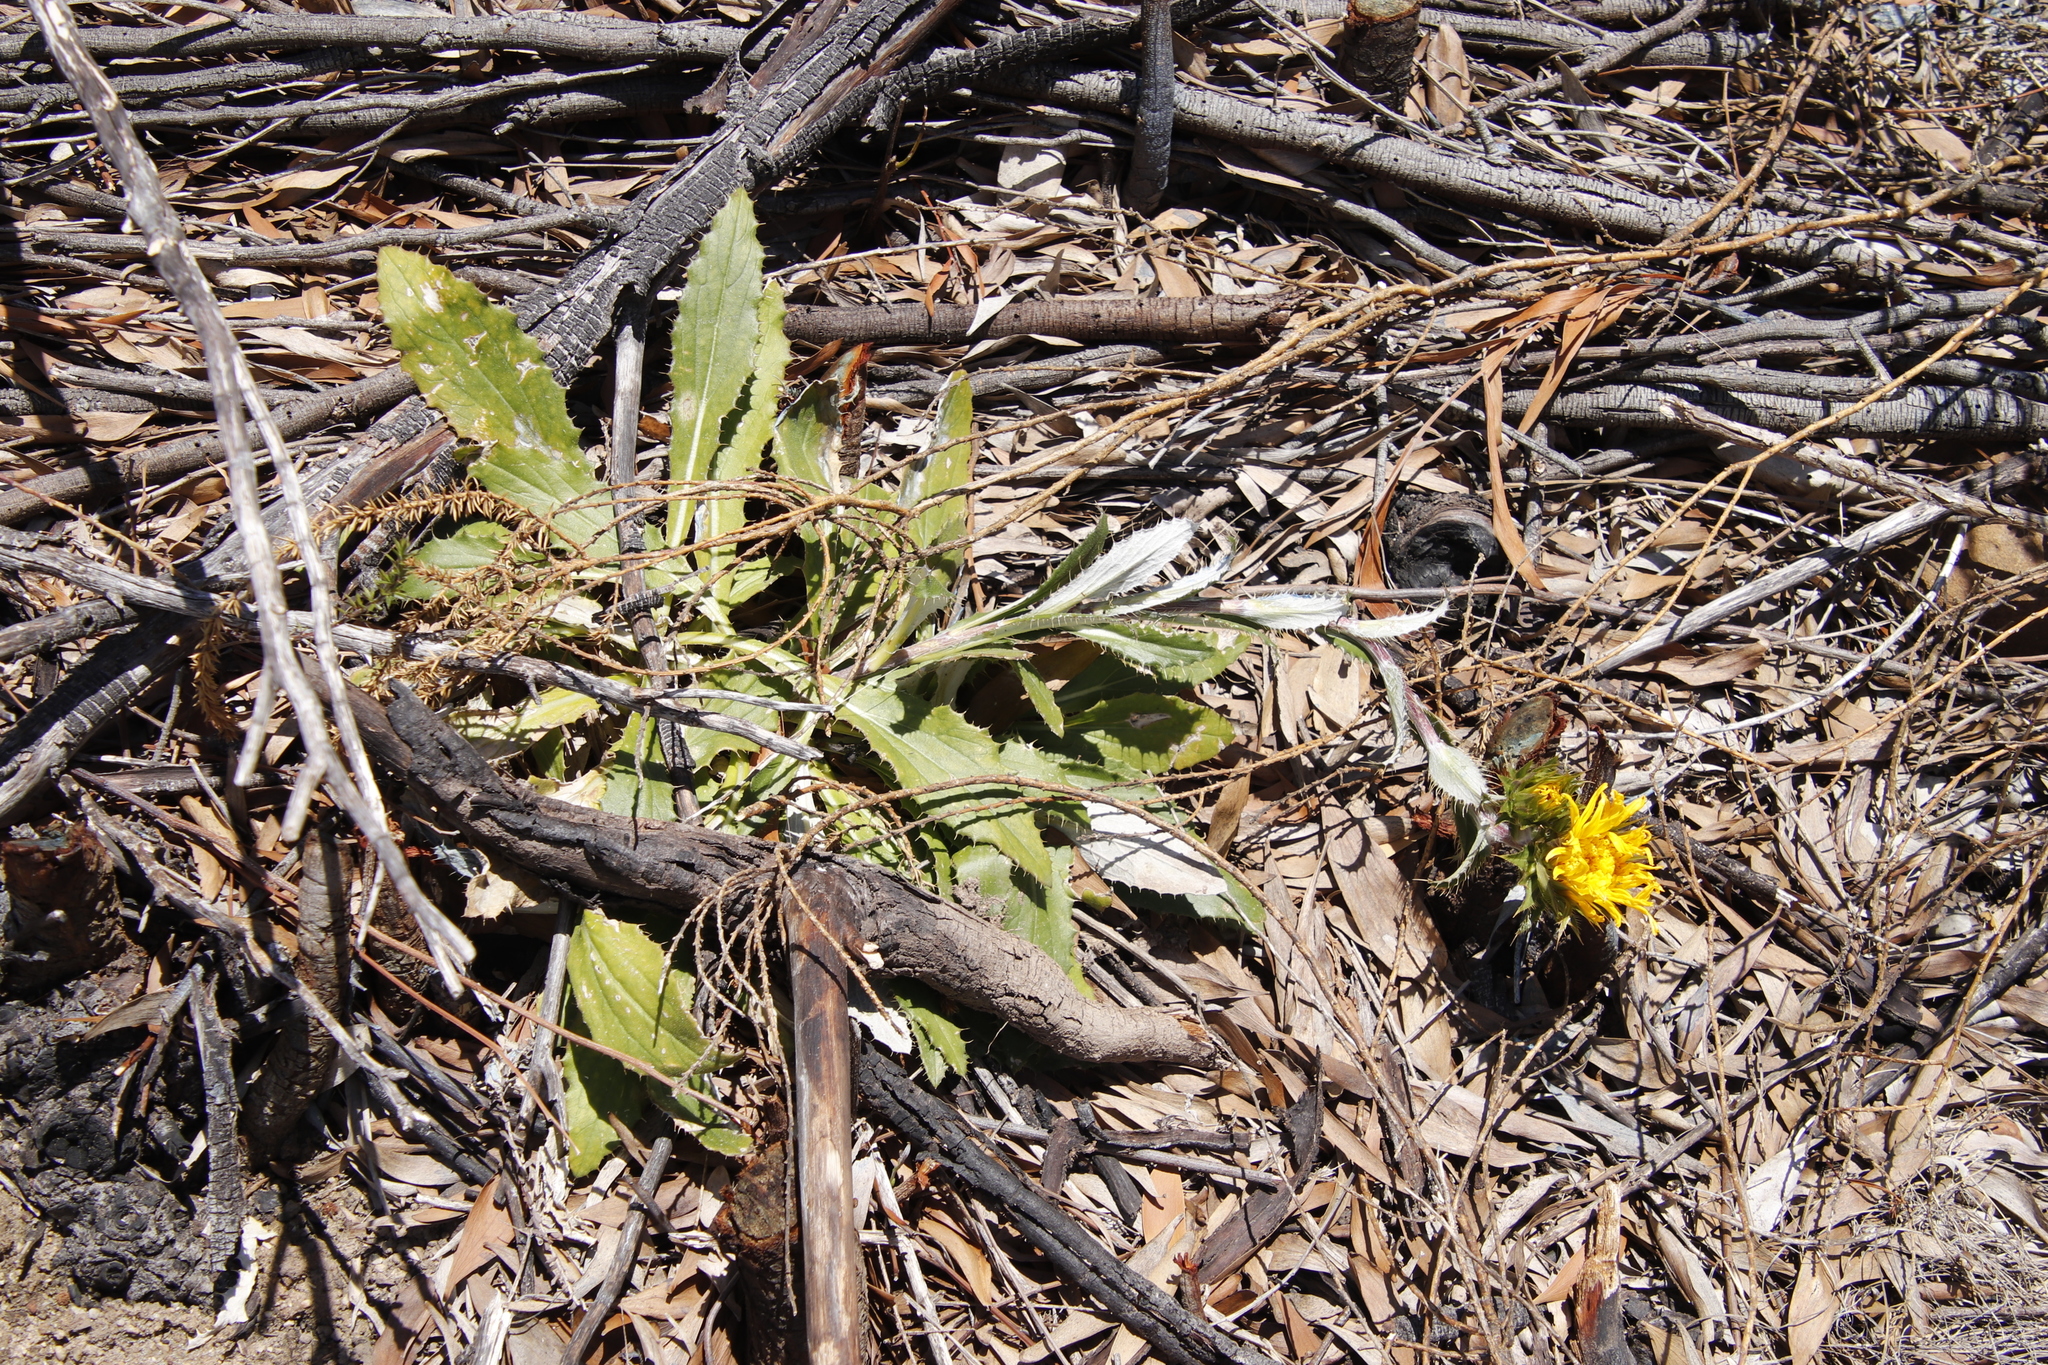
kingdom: Plantae
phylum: Tracheophyta
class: Magnoliopsida
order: Asterales
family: Asteraceae
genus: Berkheya
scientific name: Berkheya armata
